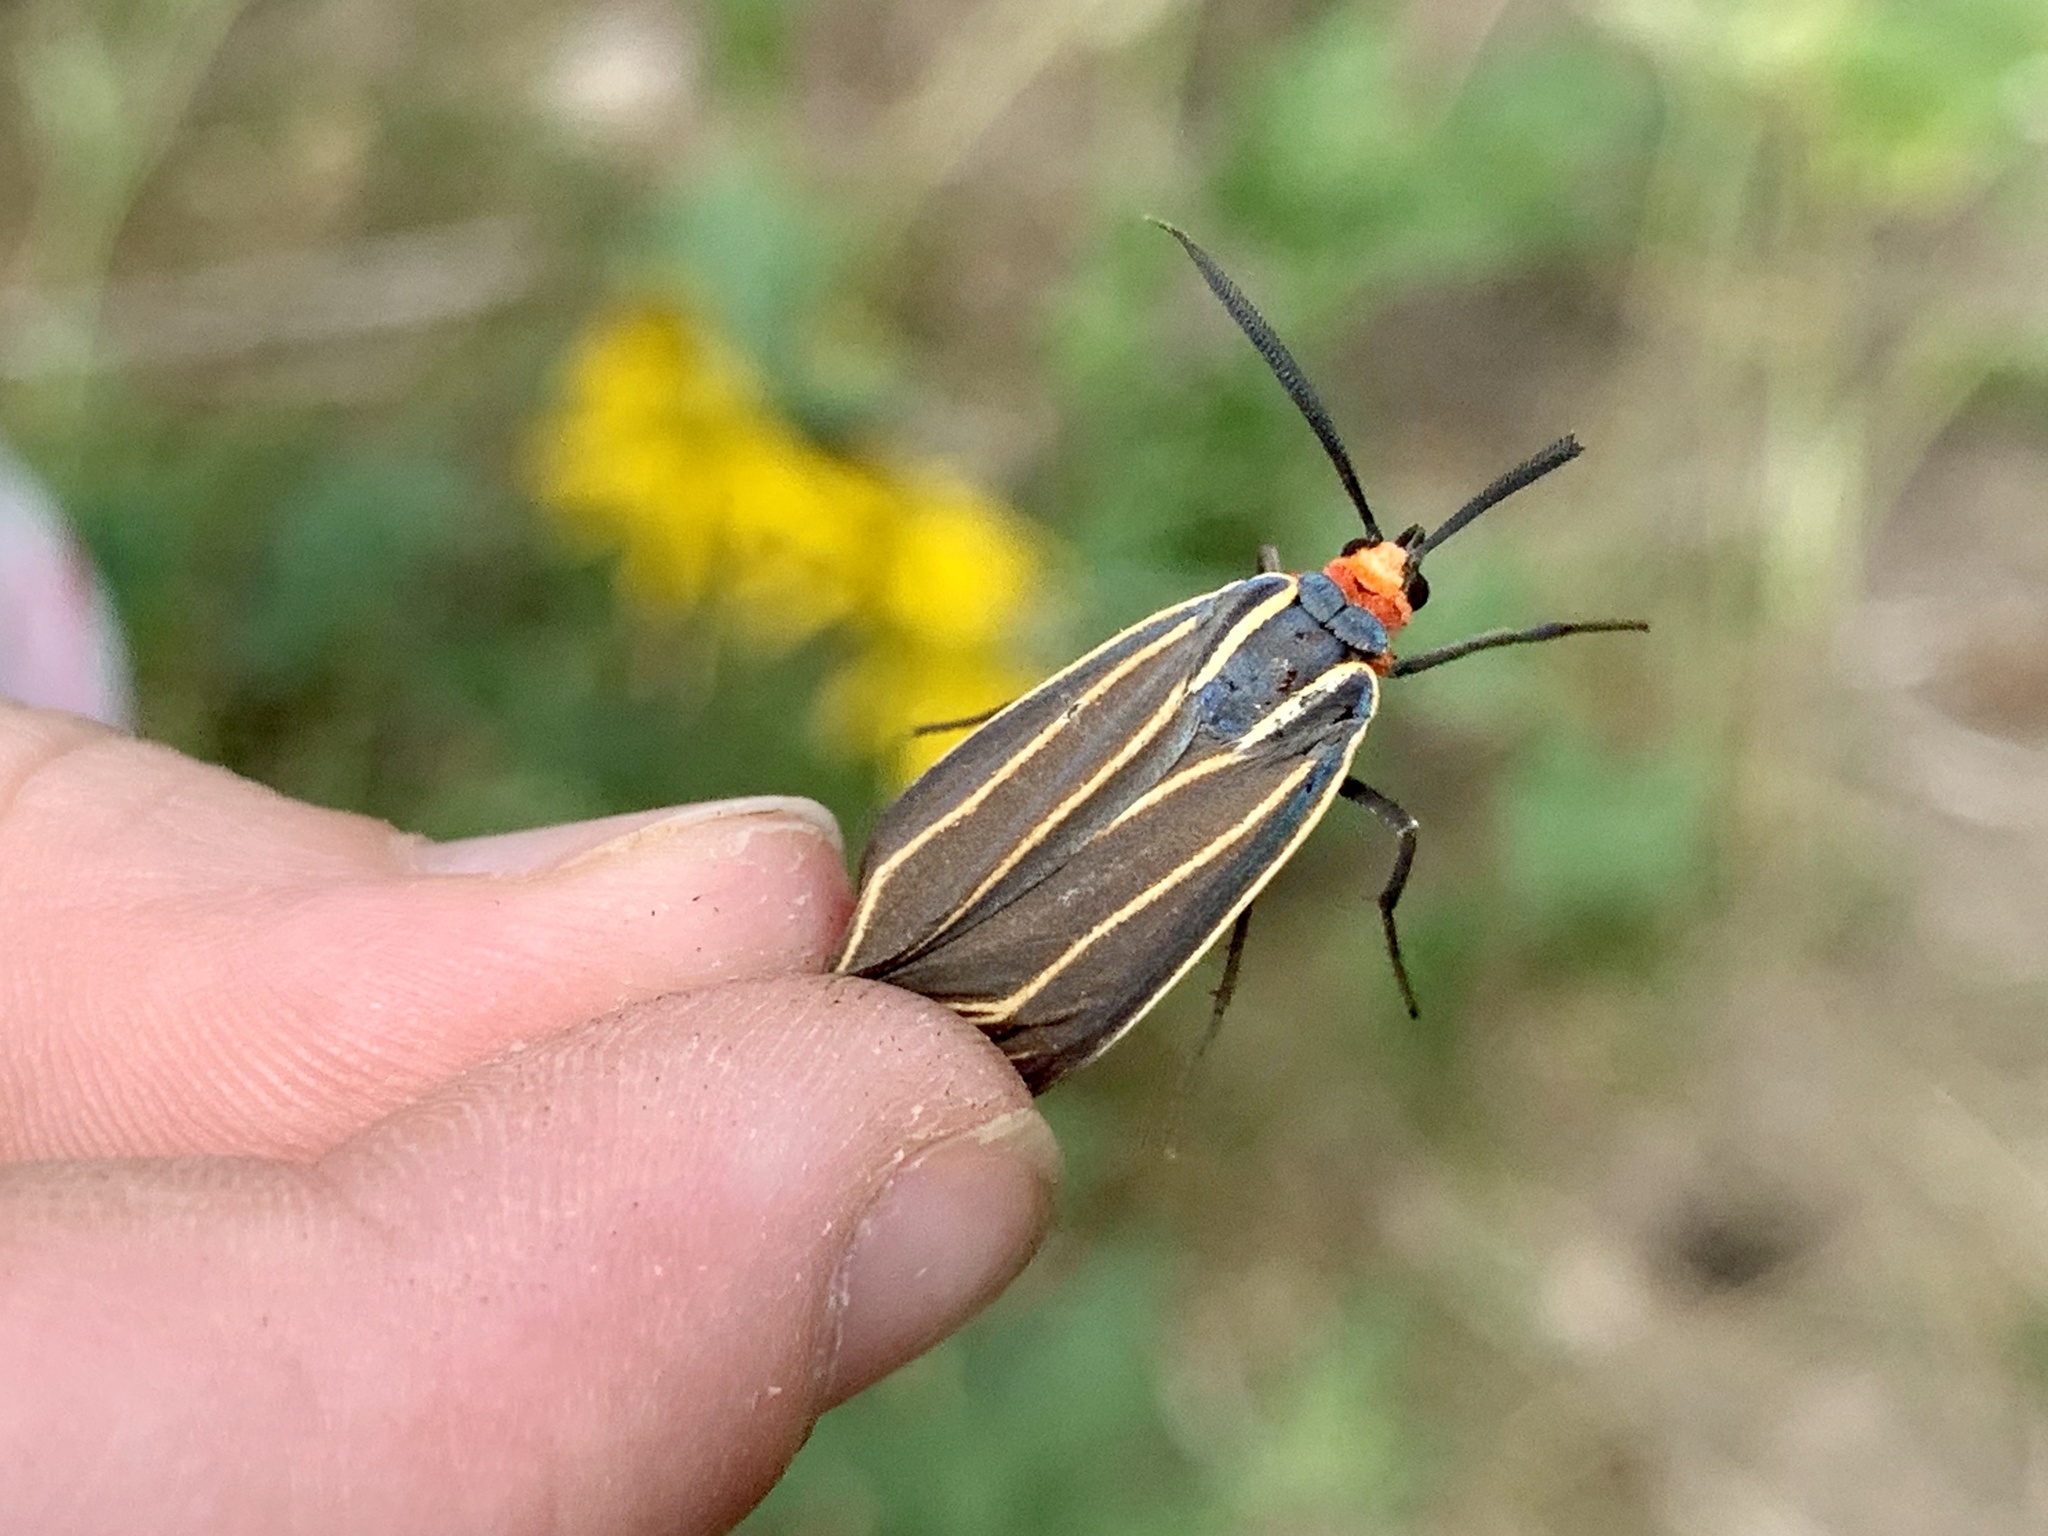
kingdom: Animalia
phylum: Arthropoda
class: Insecta
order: Lepidoptera
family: Erebidae
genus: Ctenucha
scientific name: Ctenucha venosa
